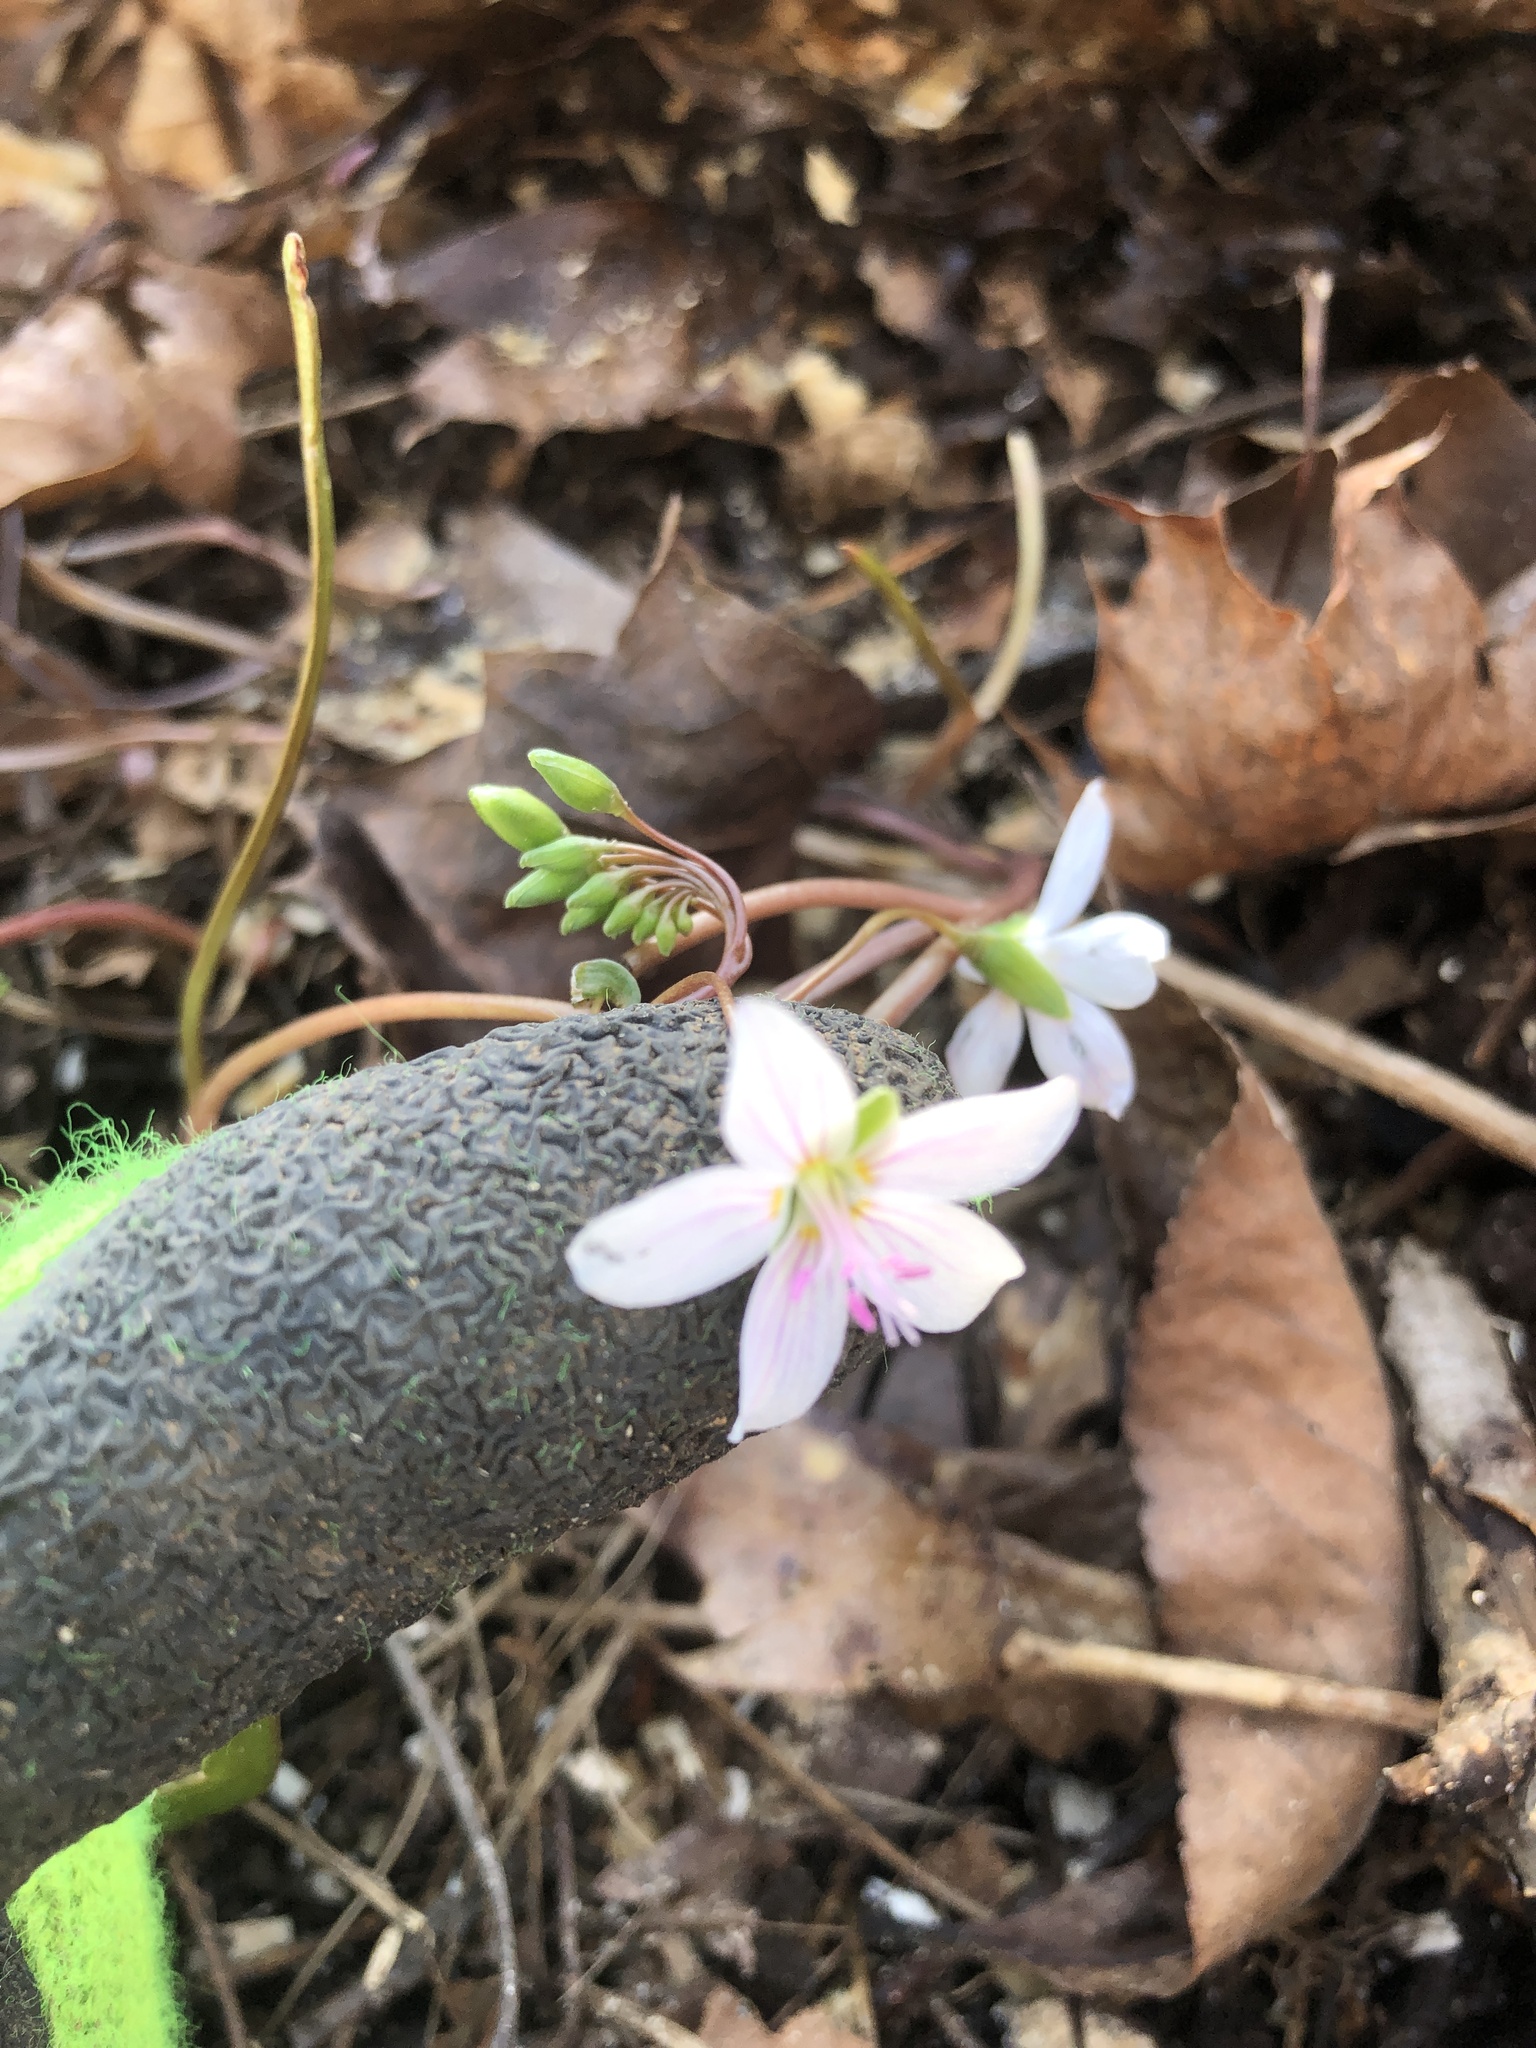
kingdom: Plantae
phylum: Tracheophyta
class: Magnoliopsida
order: Caryophyllales
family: Montiaceae
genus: Claytonia
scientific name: Claytonia virginica
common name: Virginia springbeauty
